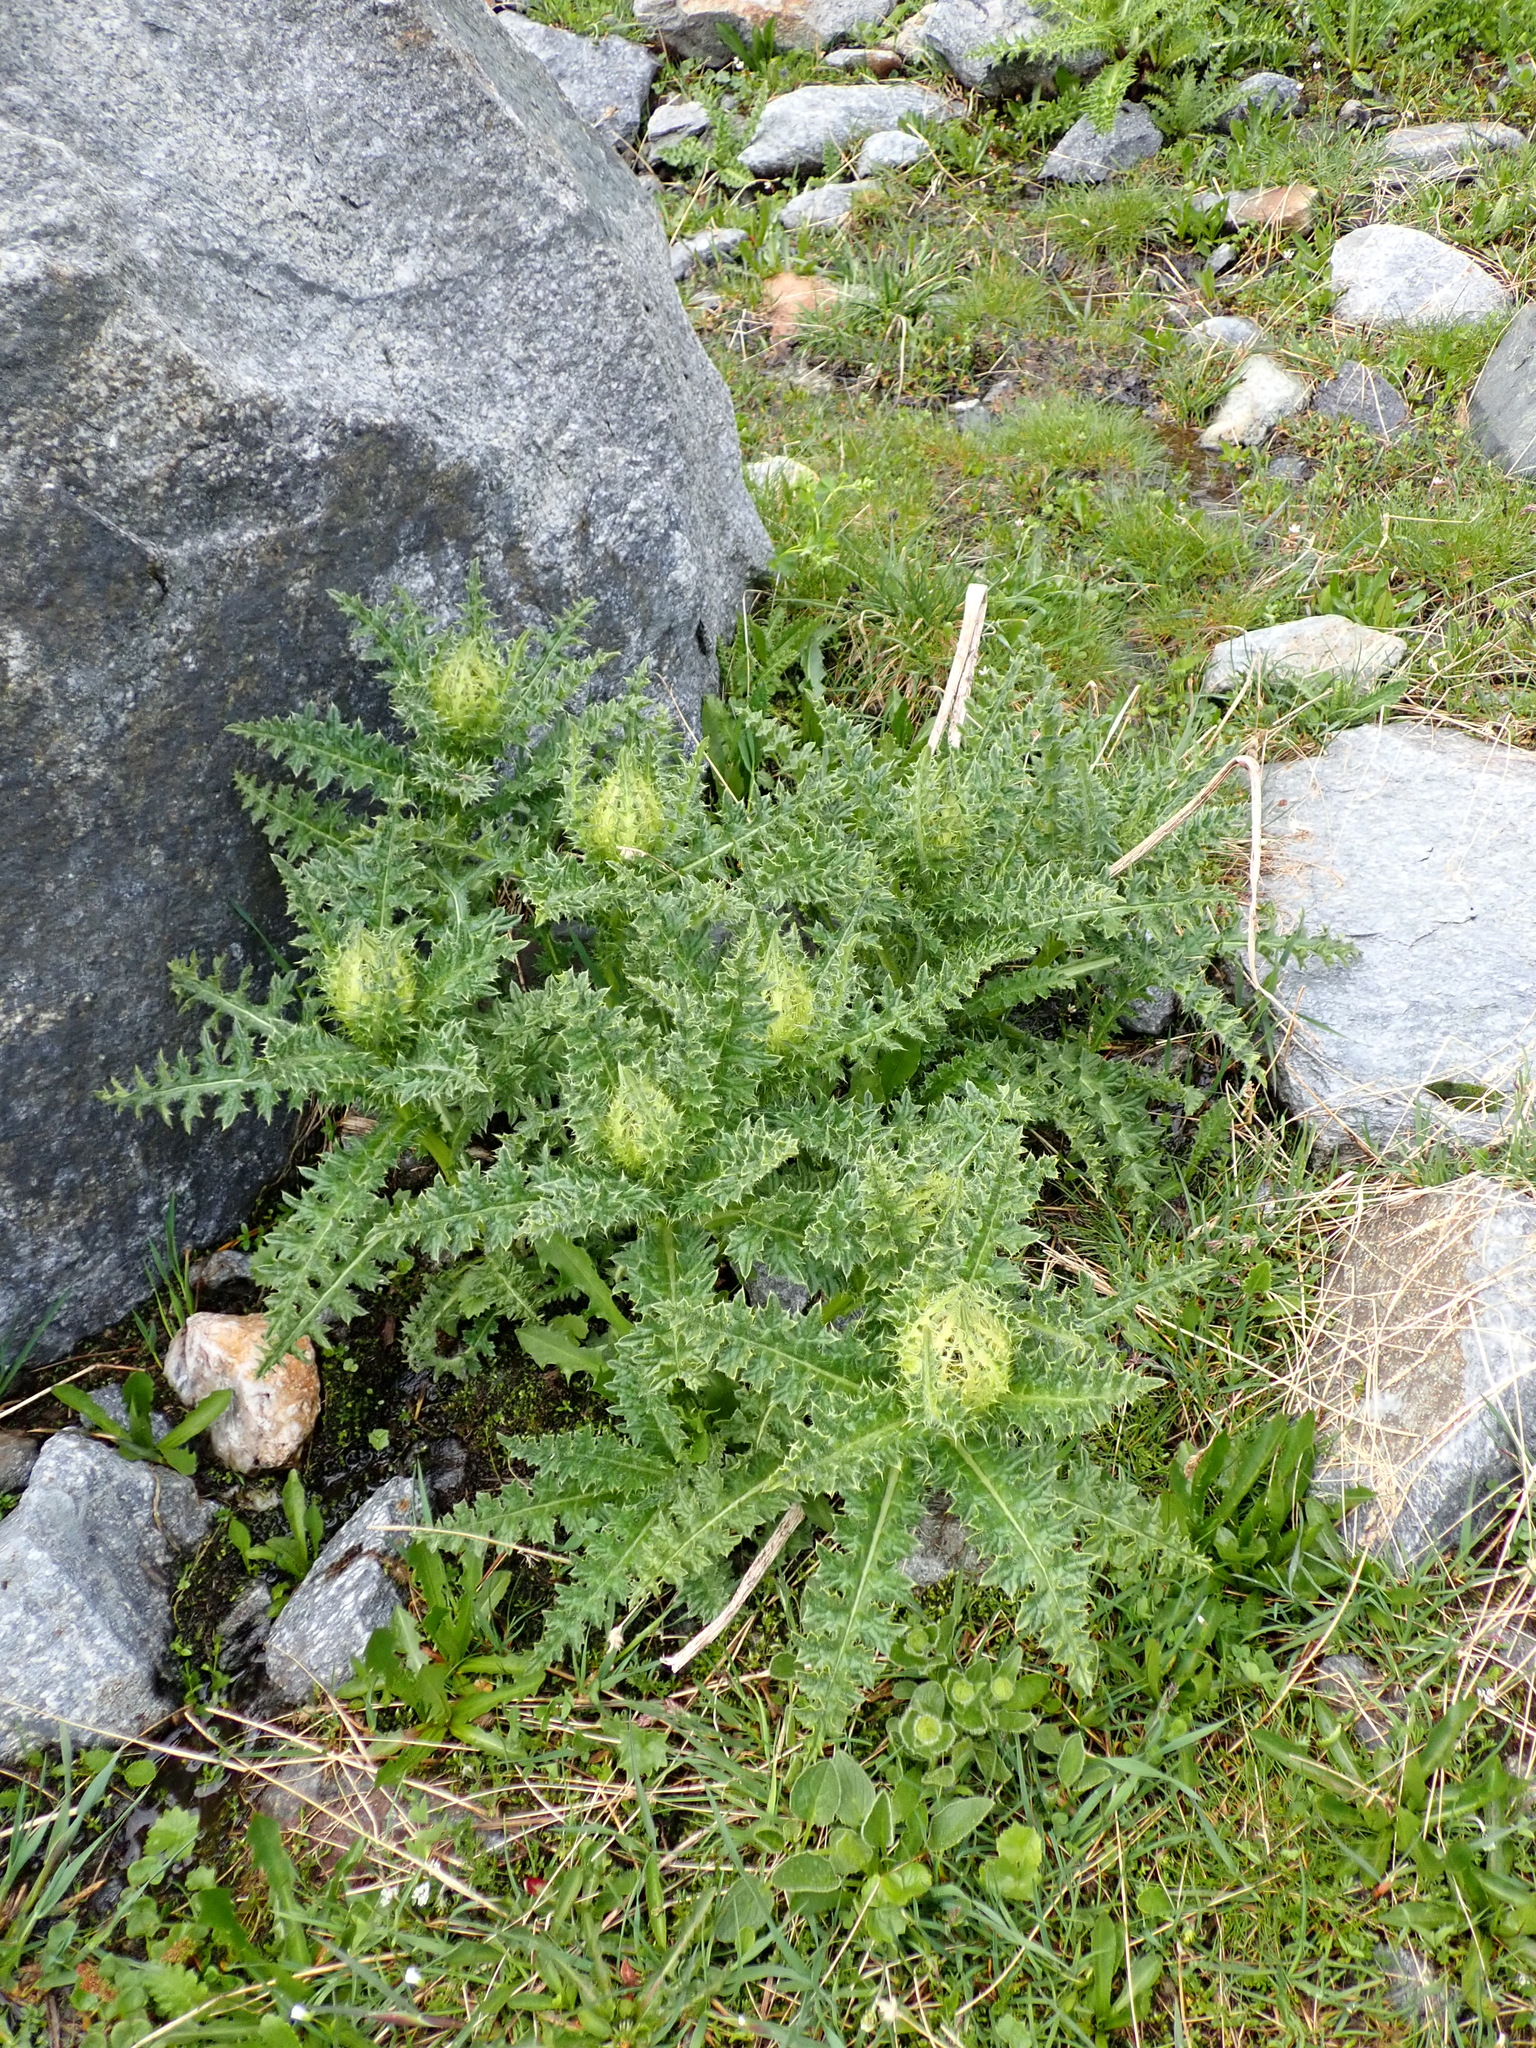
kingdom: Plantae
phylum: Tracheophyta
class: Magnoliopsida
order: Asterales
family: Asteraceae
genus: Cirsium
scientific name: Cirsium spinosissimum
